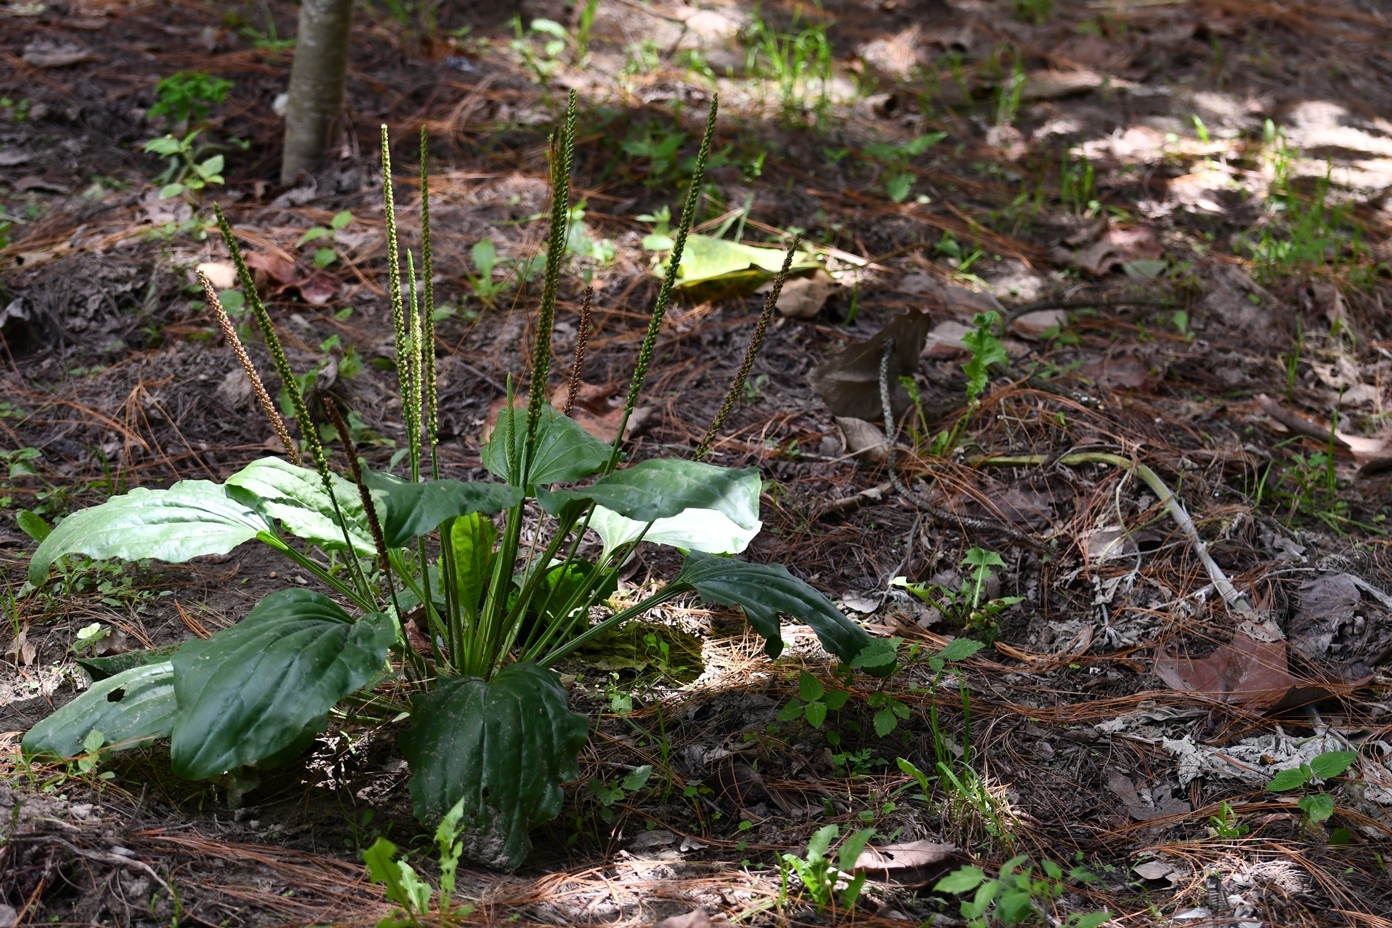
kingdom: Plantae
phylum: Tracheophyta
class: Magnoliopsida
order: Lamiales
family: Plantaginaceae
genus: Plantago
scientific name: Plantago major
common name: Common plantain
